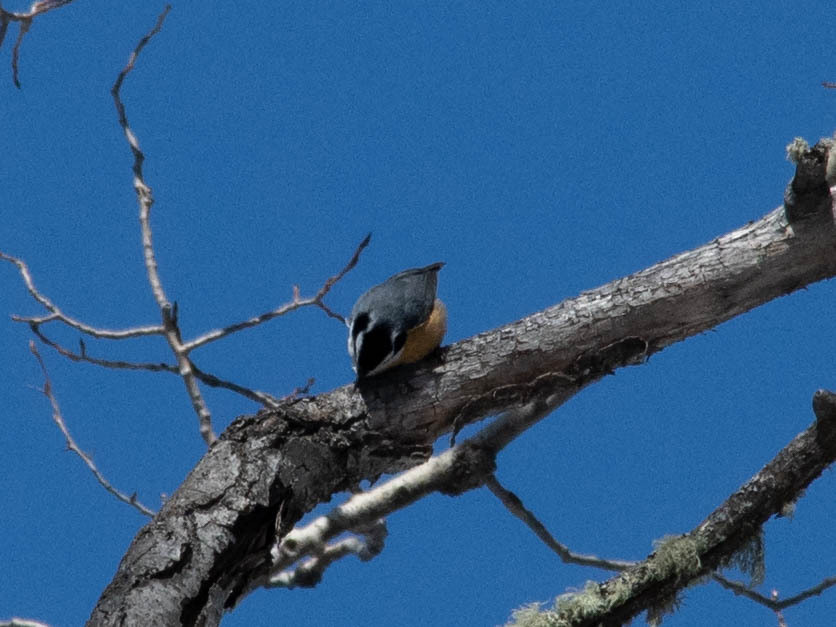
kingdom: Animalia
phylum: Chordata
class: Aves
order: Passeriformes
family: Sittidae
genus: Sitta
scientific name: Sitta canadensis
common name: Red-breasted nuthatch
